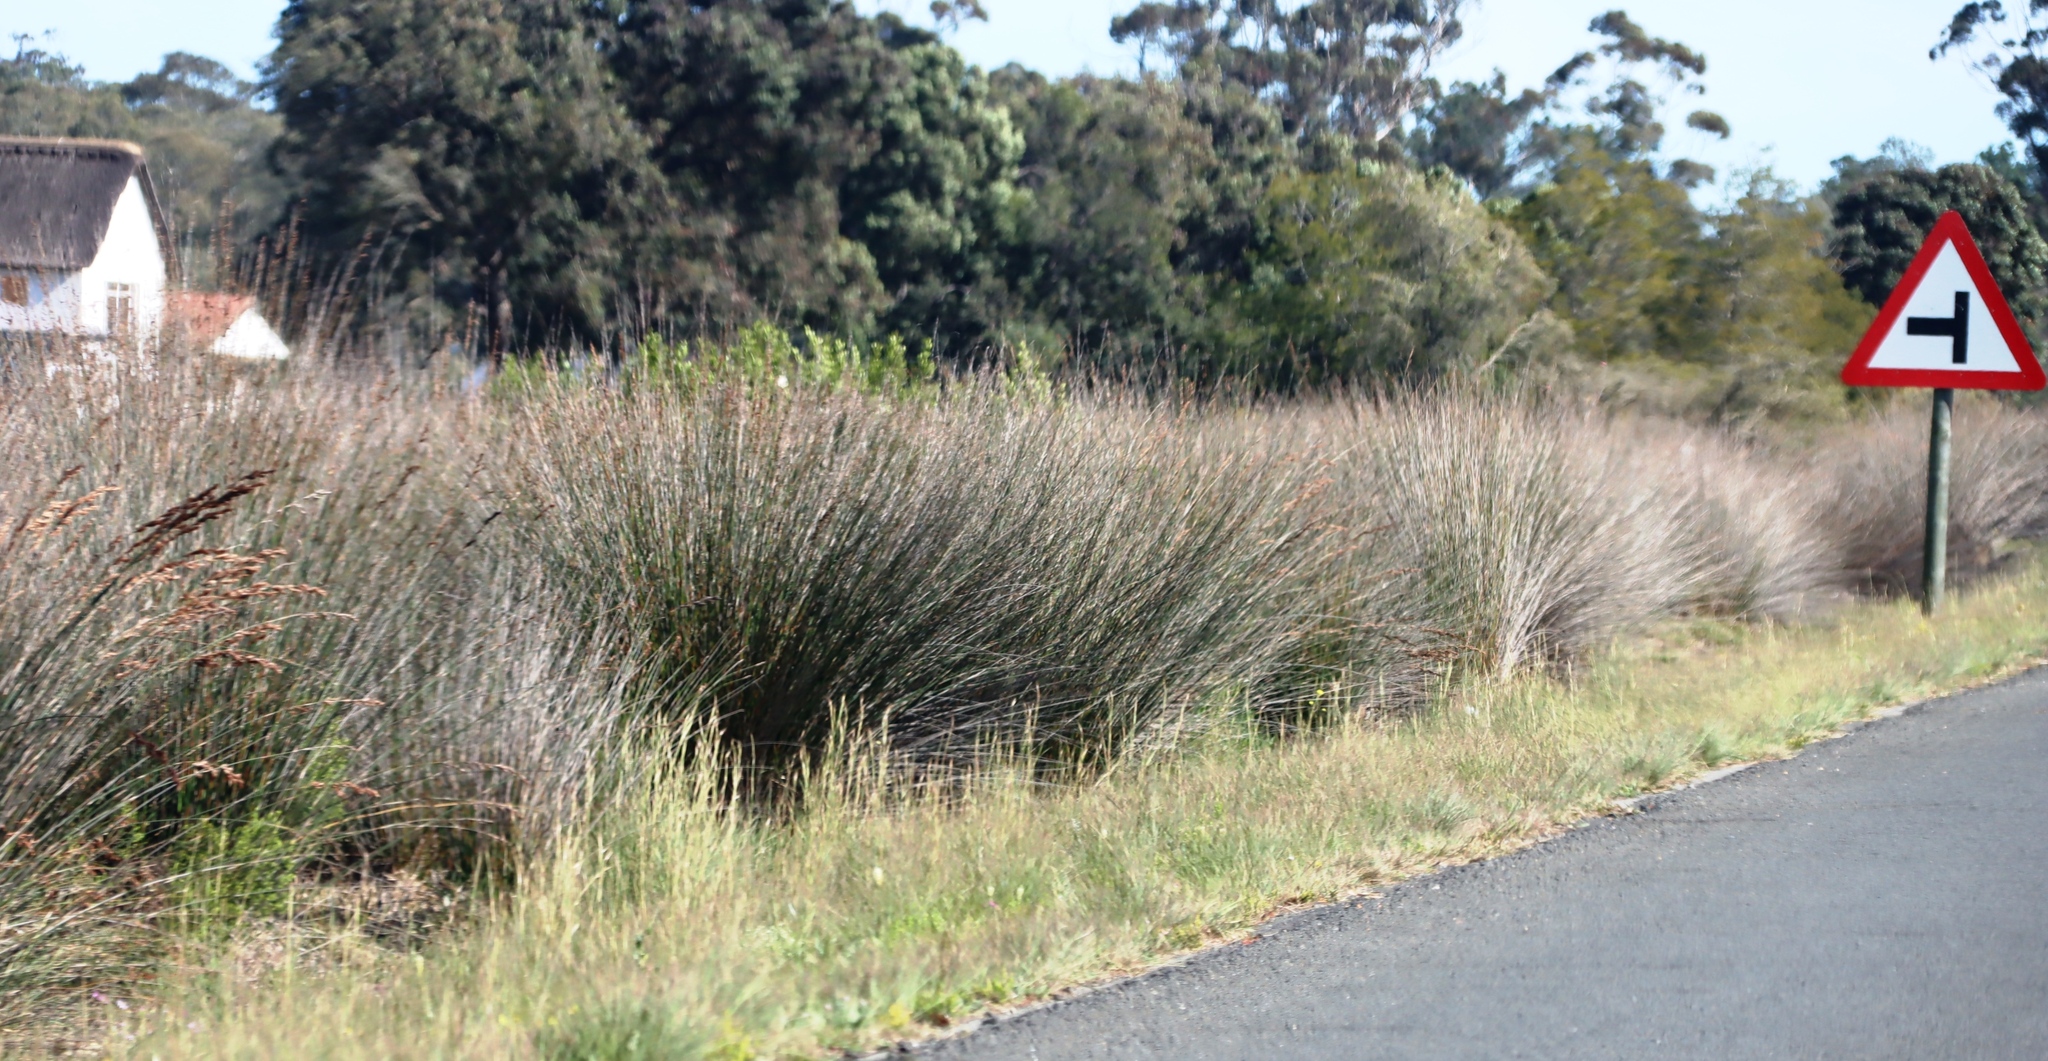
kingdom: Plantae
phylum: Tracheophyta
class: Liliopsida
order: Poales
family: Restionaceae
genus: Thamnochortus
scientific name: Thamnochortus insignis
